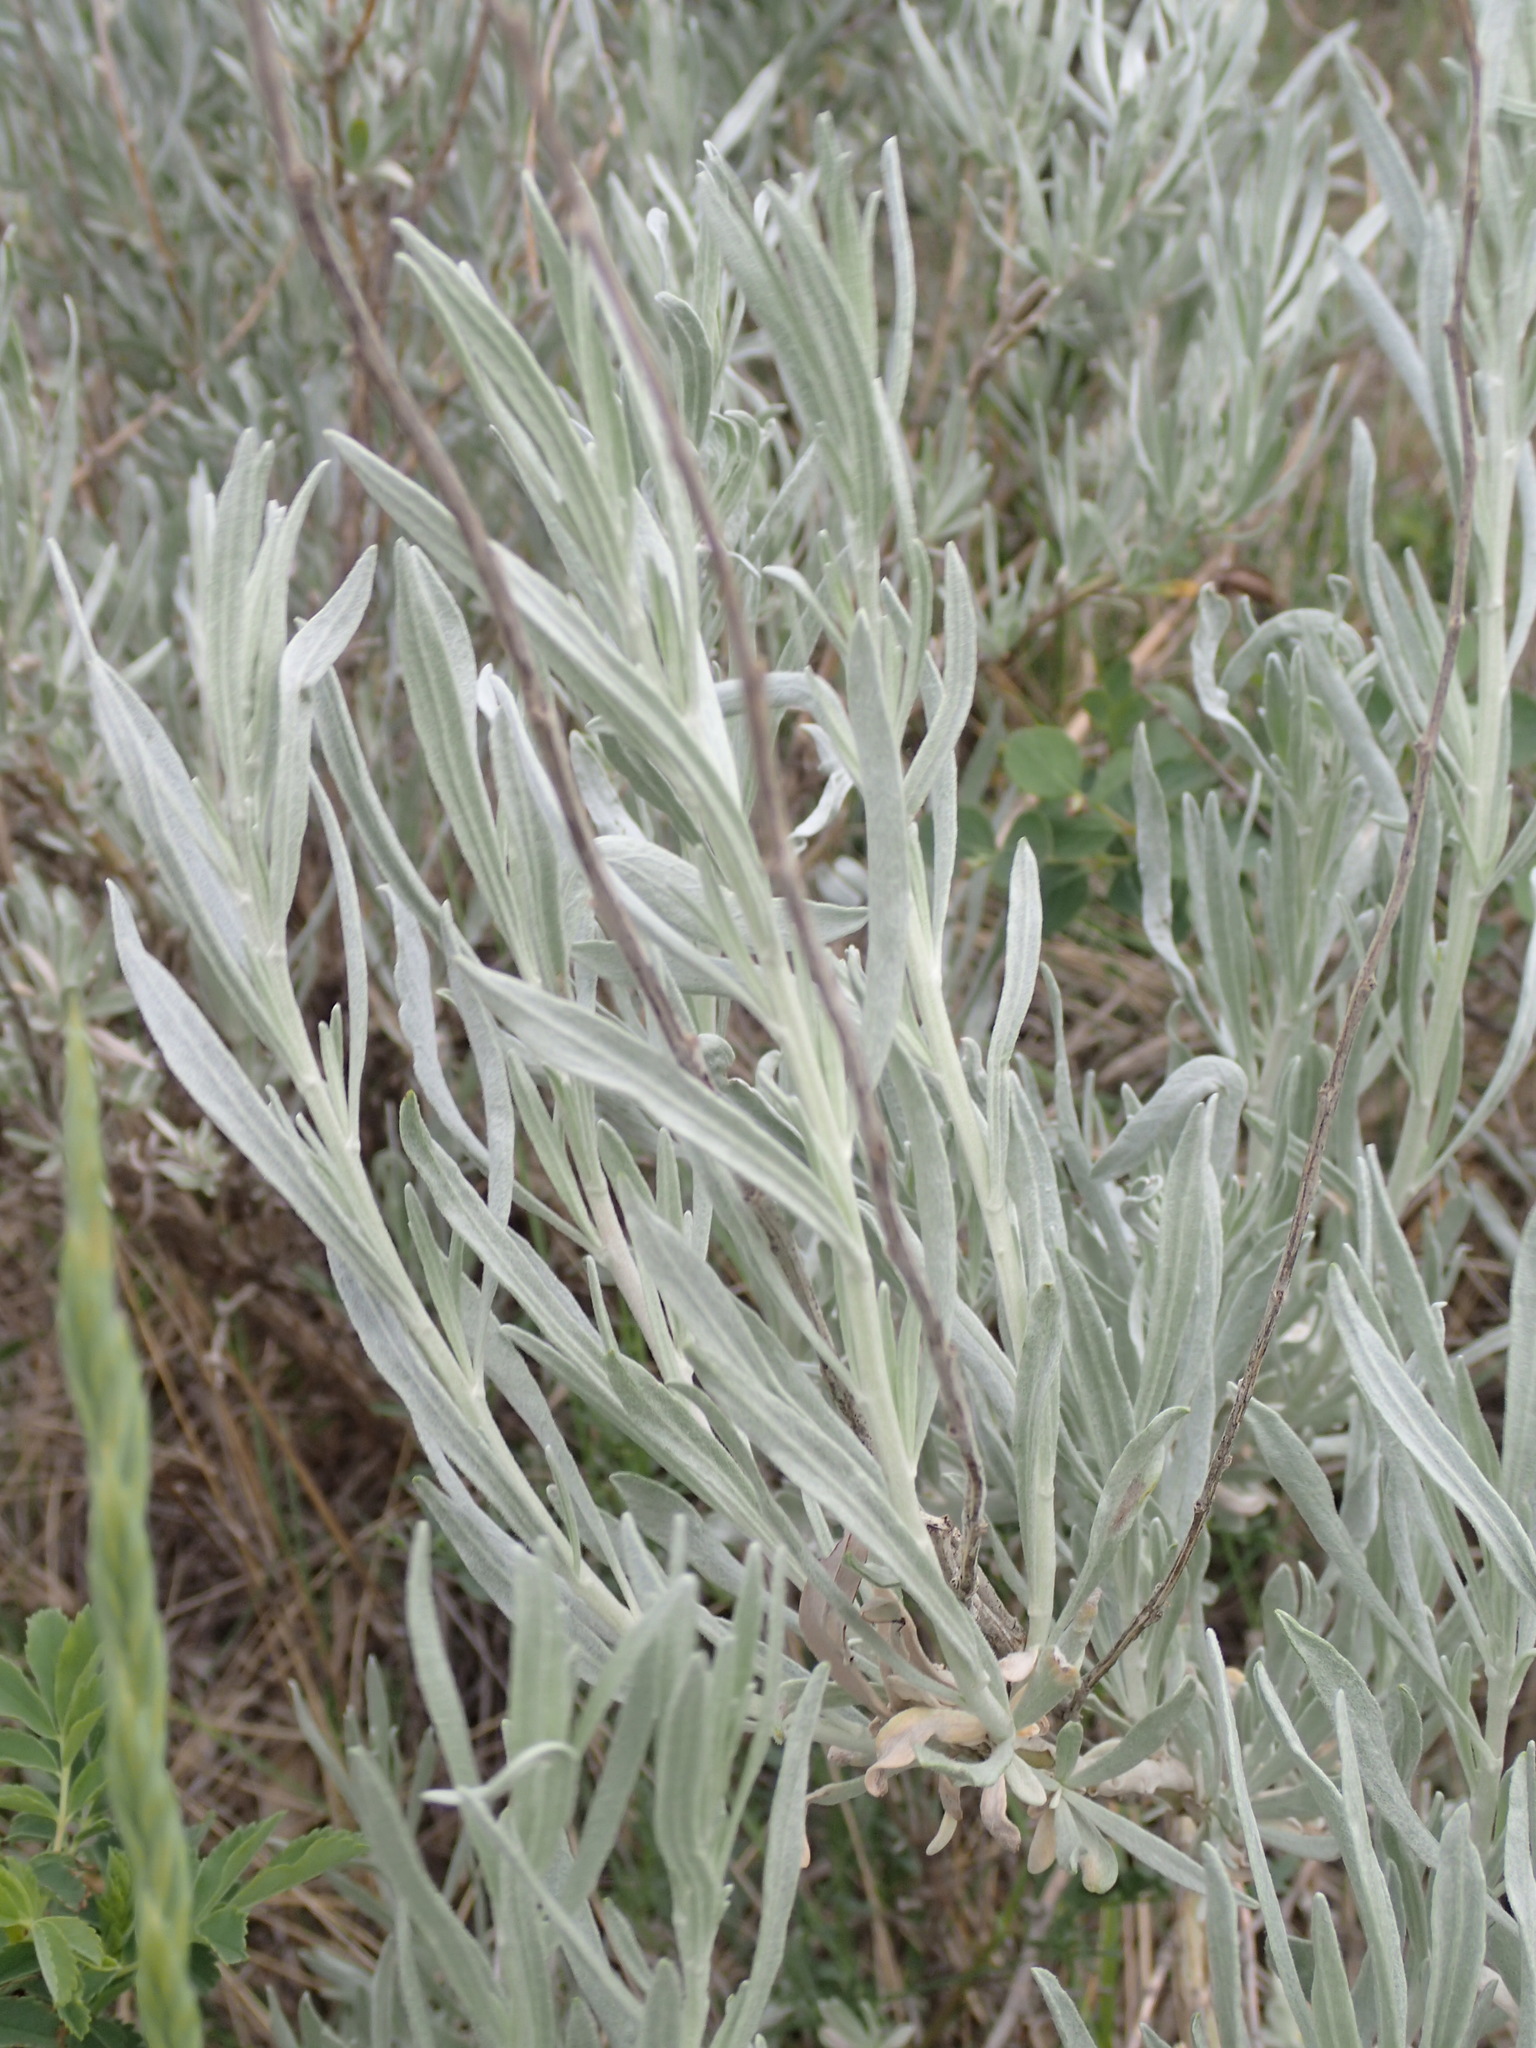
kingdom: Plantae
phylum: Tracheophyta
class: Magnoliopsida
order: Asterales
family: Asteraceae
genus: Artemisia
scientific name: Artemisia cana
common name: Silver sagebrush
